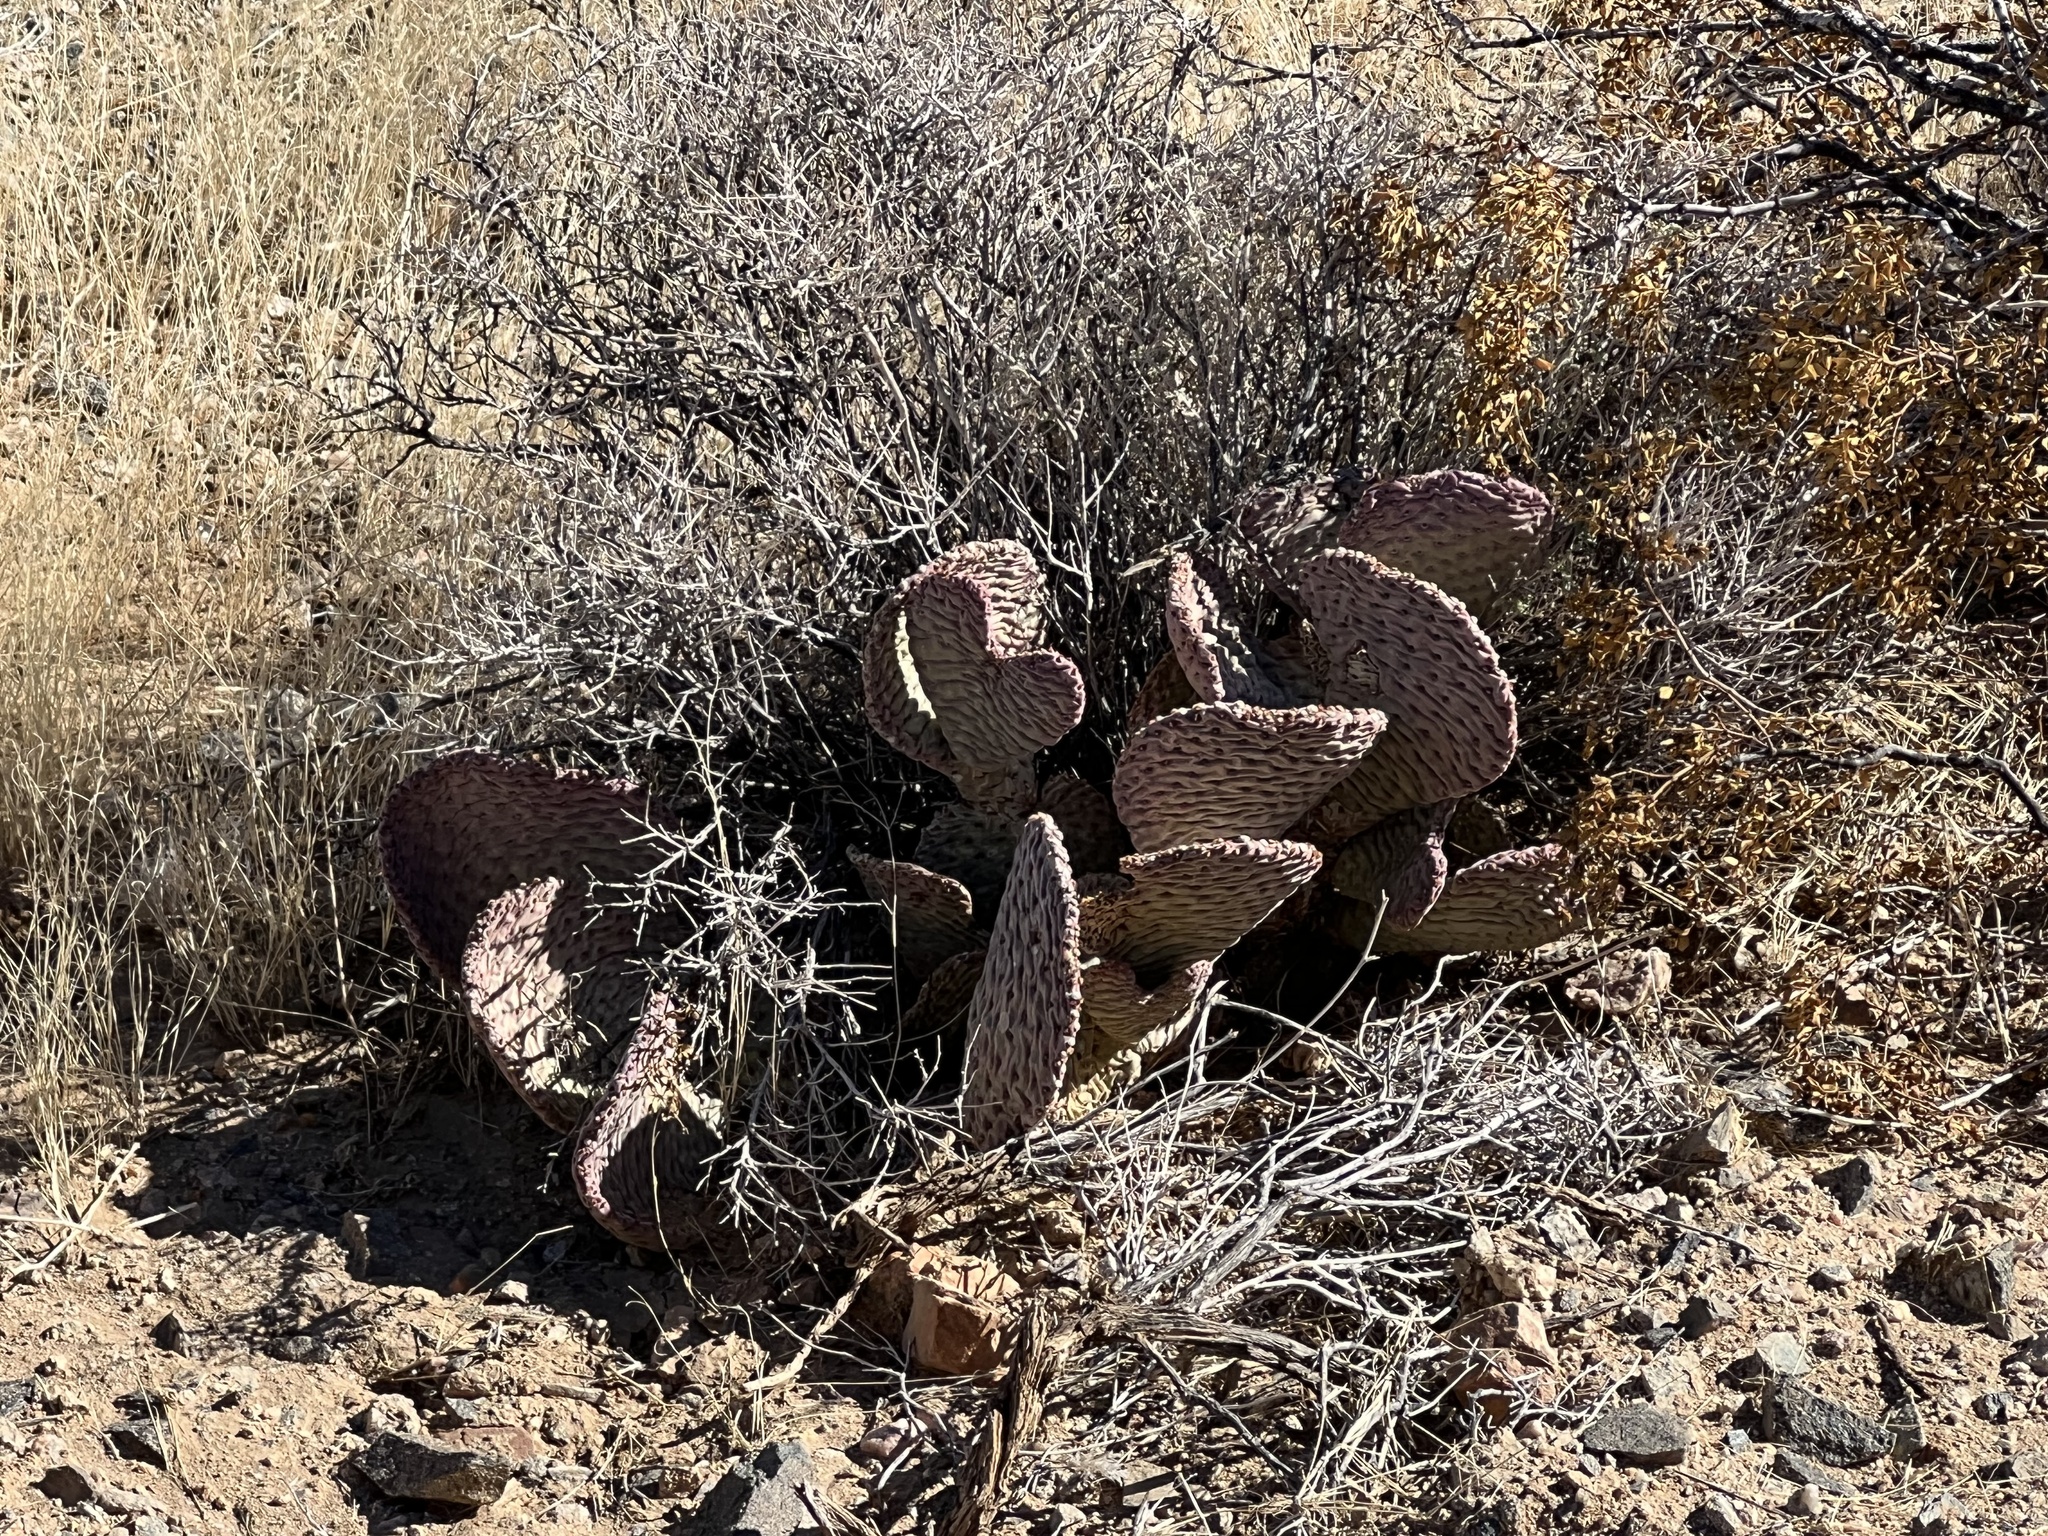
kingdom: Plantae
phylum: Tracheophyta
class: Magnoliopsida
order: Caryophyllales
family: Cactaceae
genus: Opuntia
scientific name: Opuntia basilaris
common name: Beavertail prickly-pear
